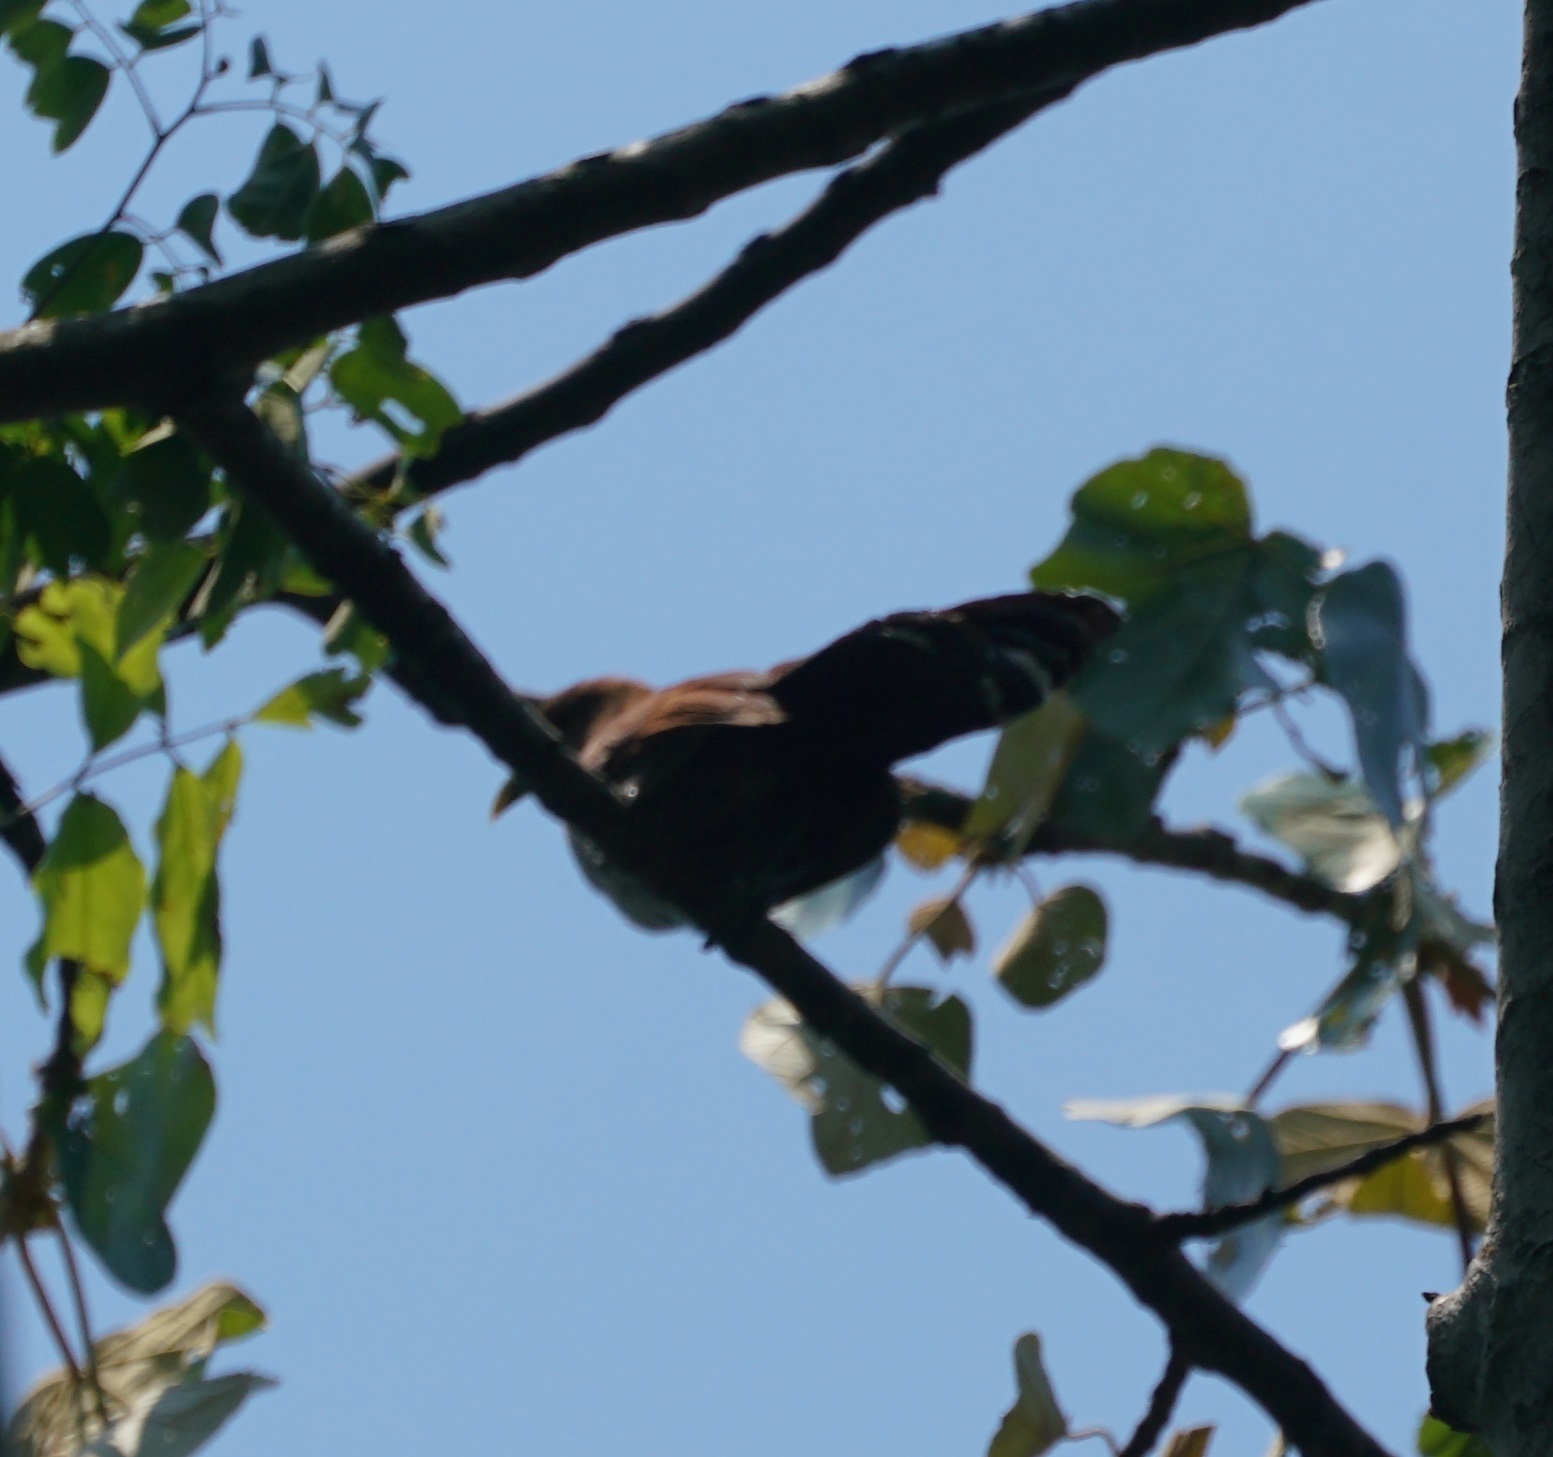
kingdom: Animalia
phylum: Chordata
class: Aves
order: Cuculiformes
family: Cuculidae
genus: Piaya
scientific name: Piaya cayana
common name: Squirrel cuckoo
